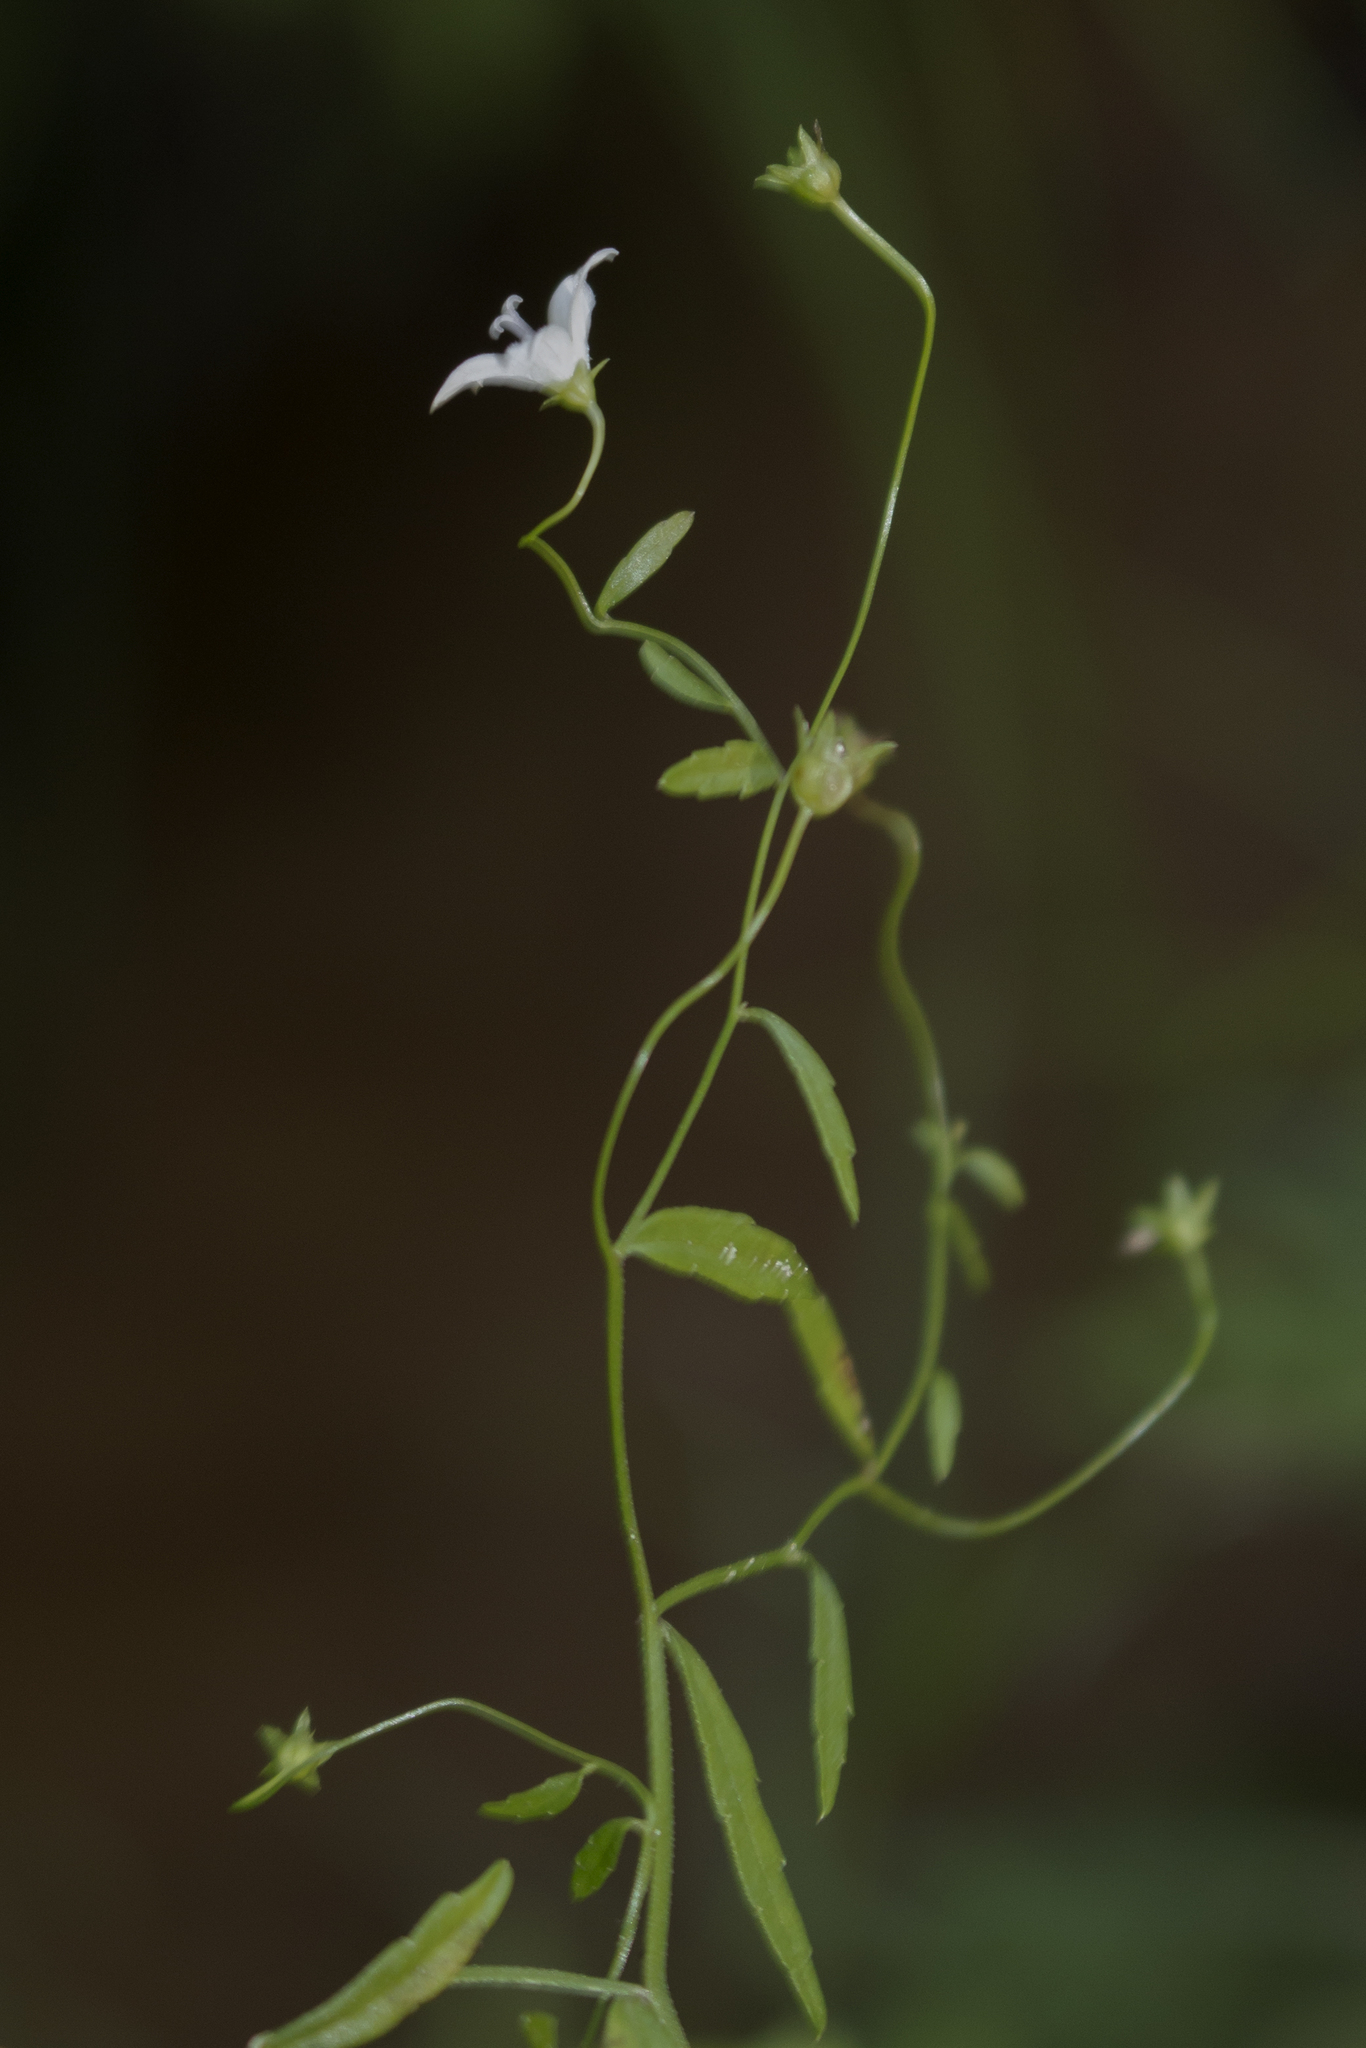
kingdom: Plantae
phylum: Tracheophyta
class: Magnoliopsida
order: Asterales
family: Campanulaceae
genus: Palustricodon
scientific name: Palustricodon aparinoides
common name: Bedstraw bellflower
